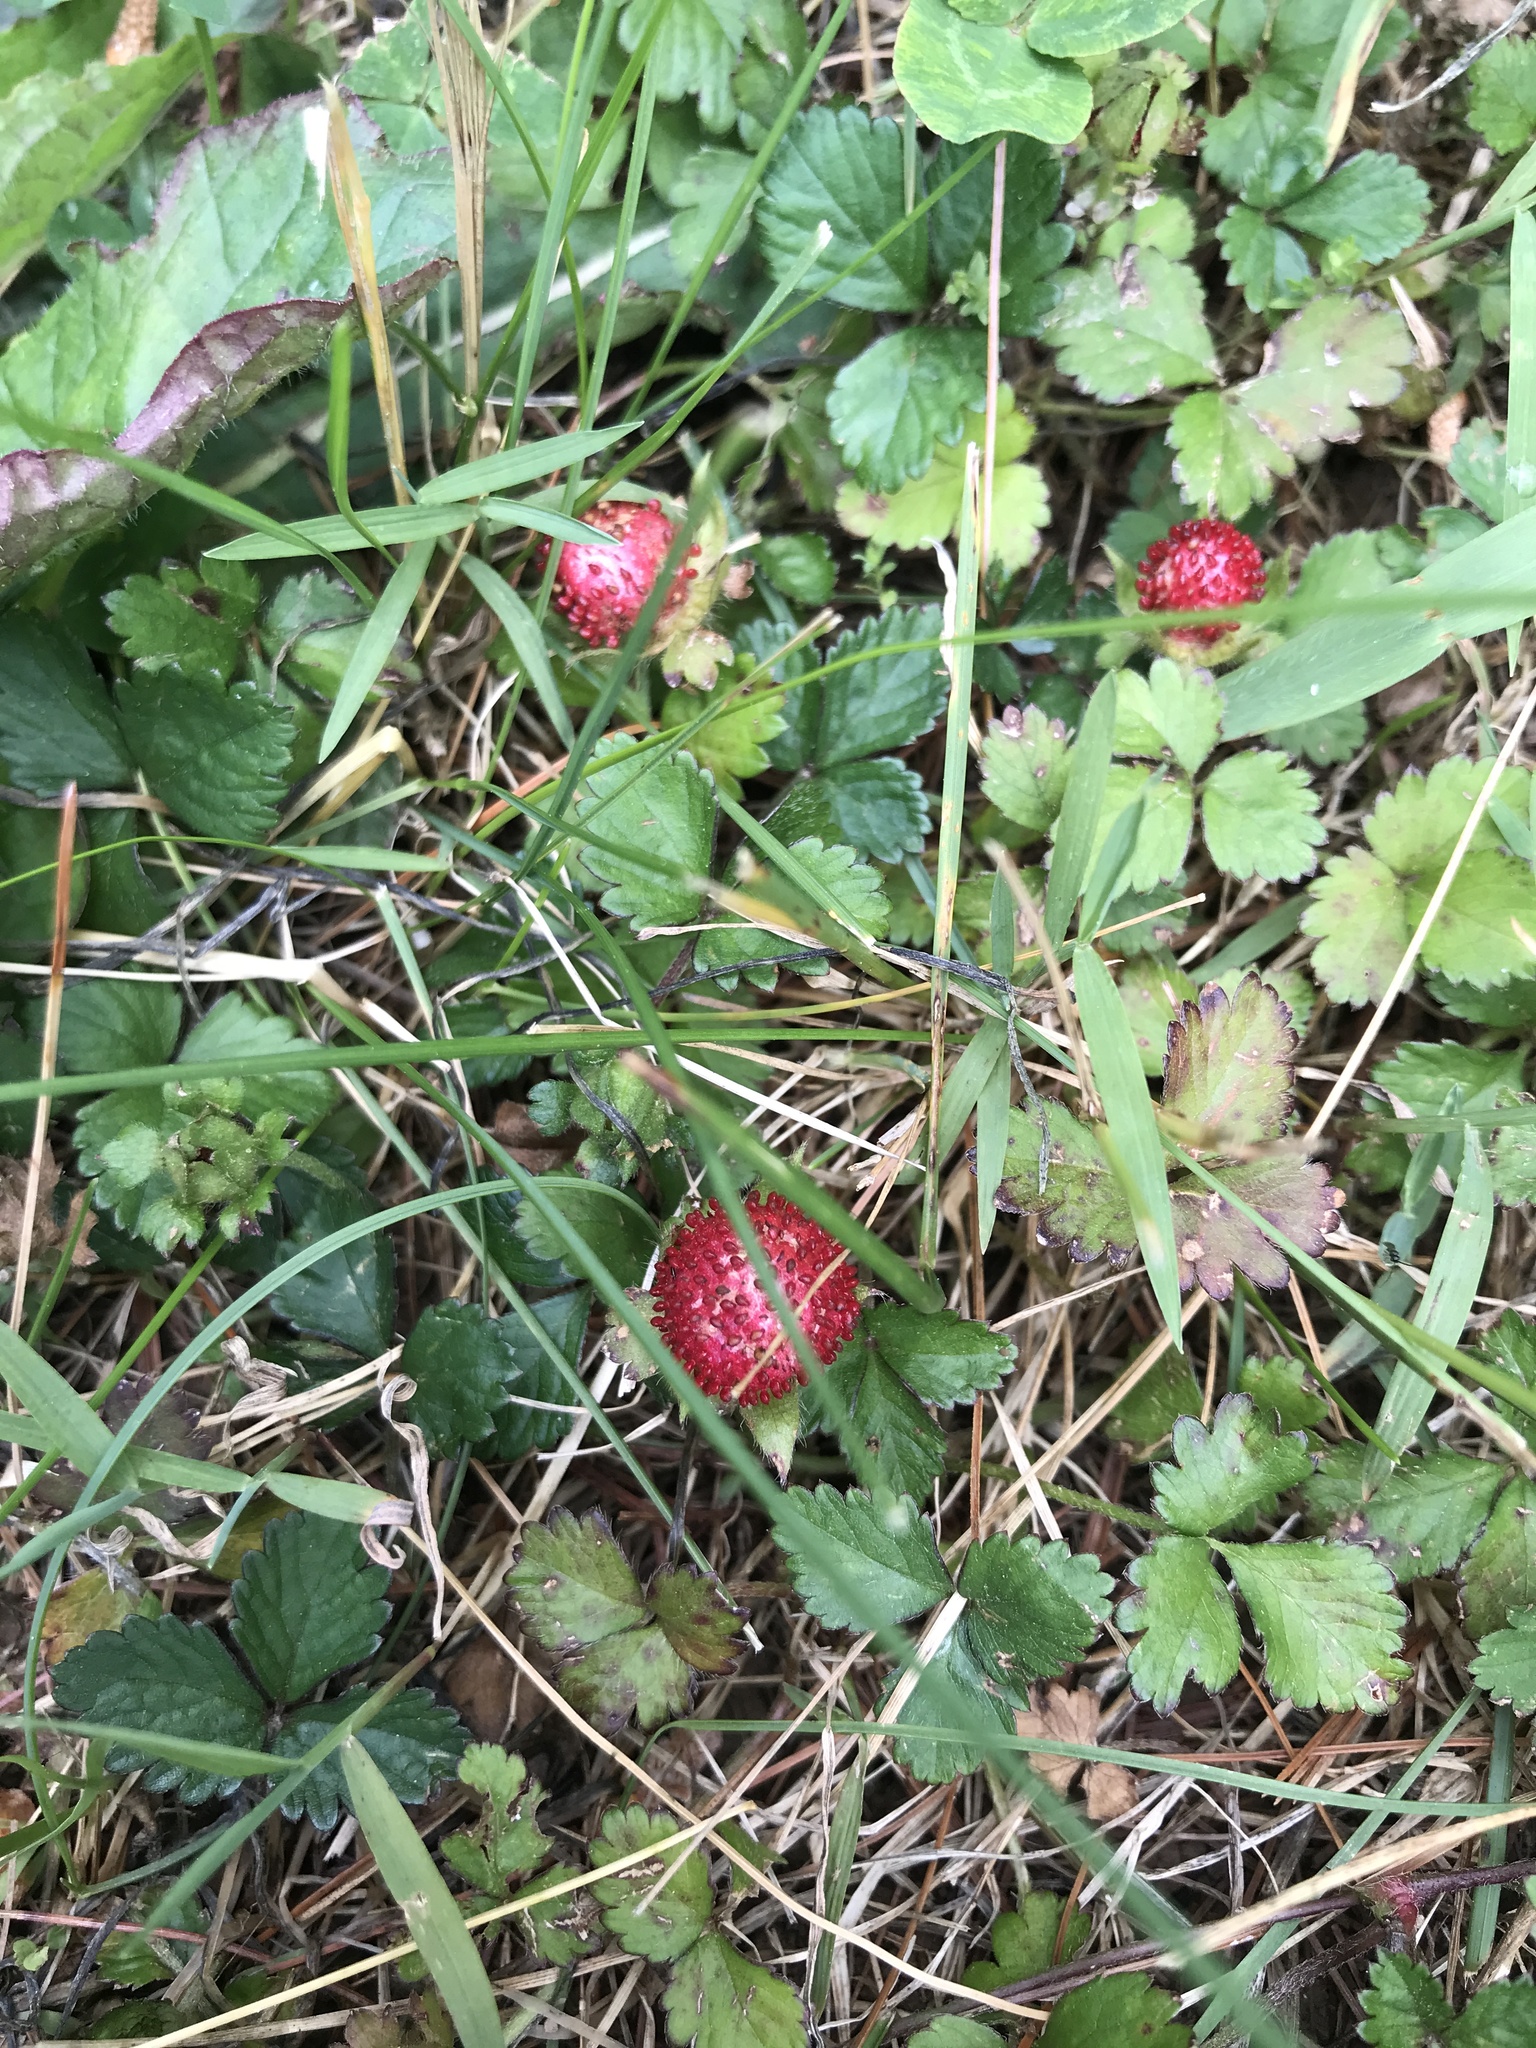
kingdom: Plantae
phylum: Tracheophyta
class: Magnoliopsida
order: Rosales
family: Rosaceae
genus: Potentilla
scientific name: Potentilla indica
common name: Yellow-flowered strawberry
